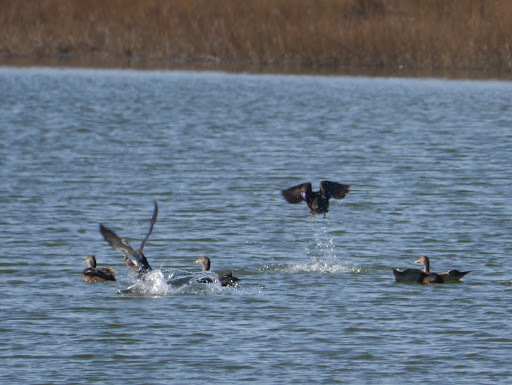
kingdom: Animalia
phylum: Chordata
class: Aves
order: Anseriformes
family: Anatidae
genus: Anas
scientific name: Anas rubripes
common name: American black duck
